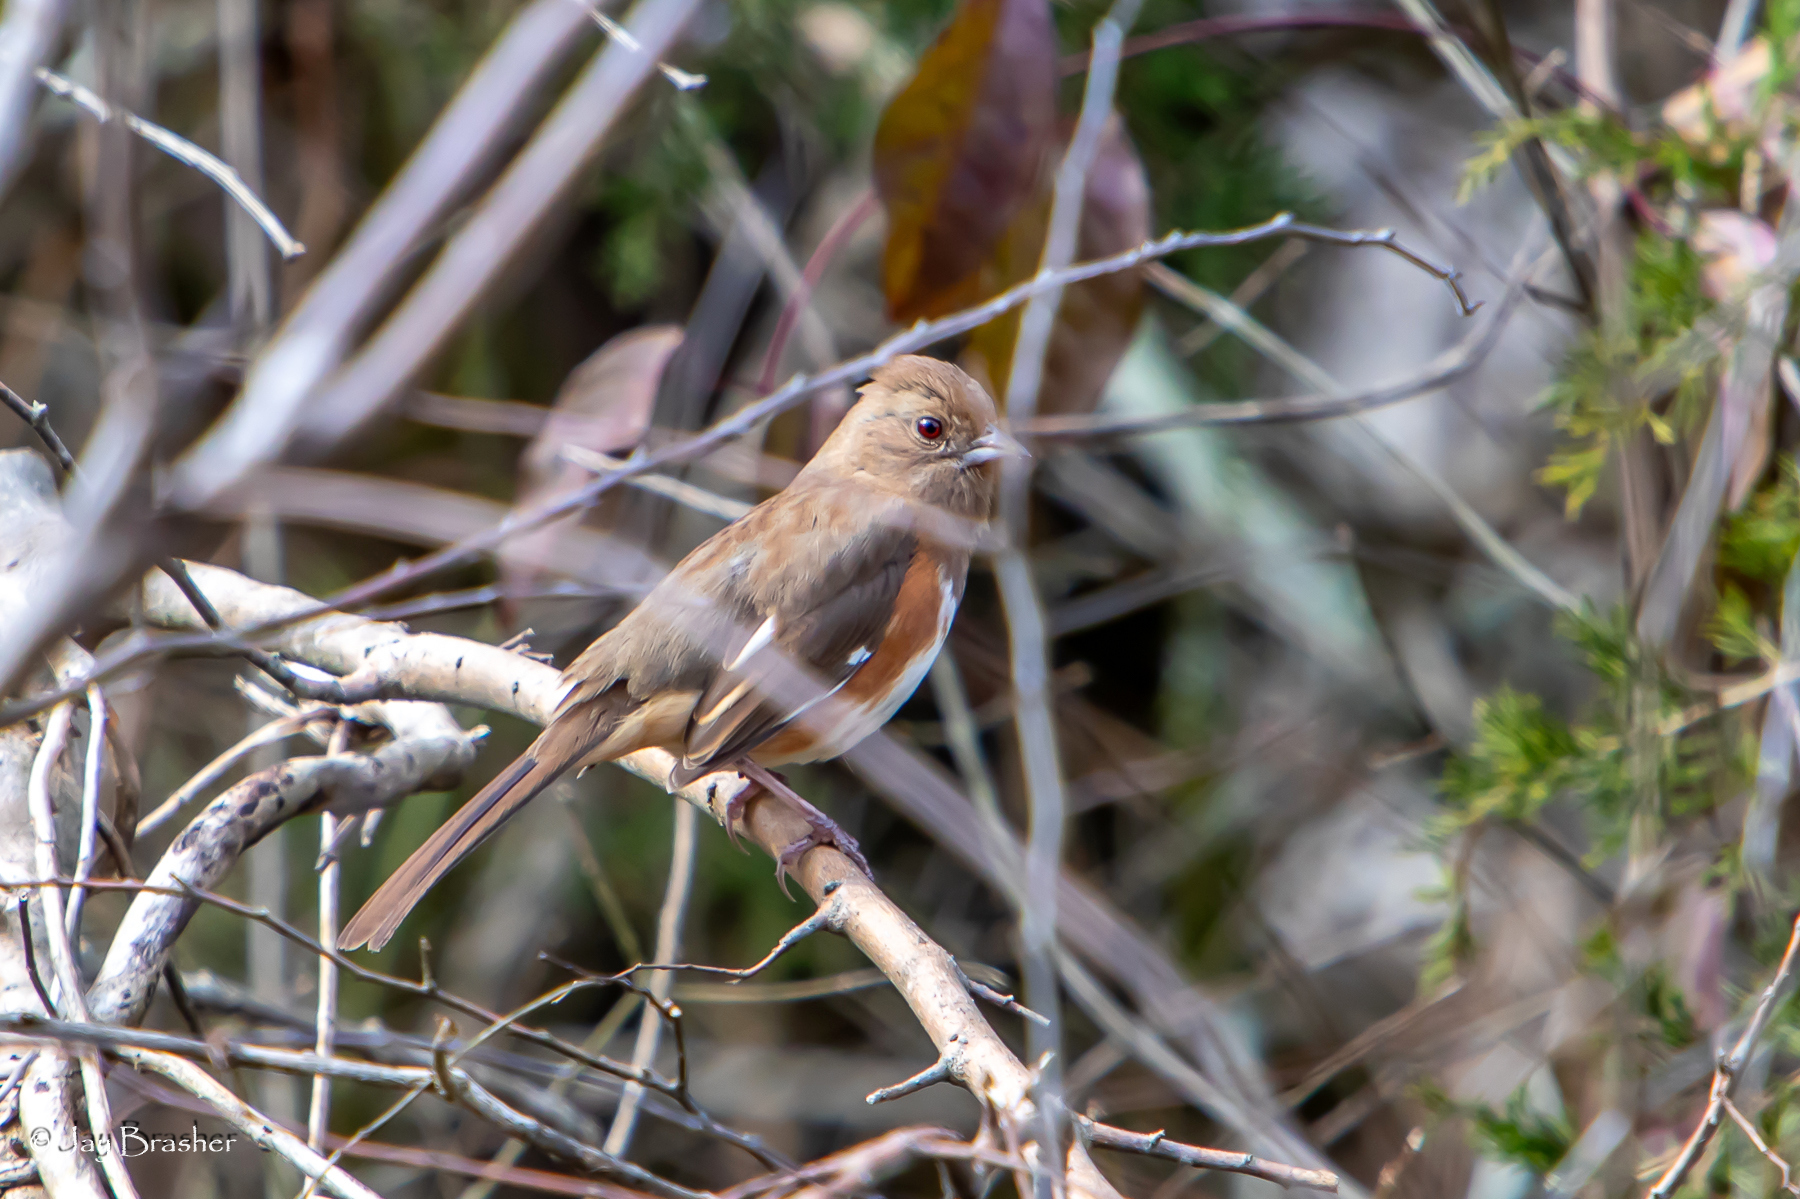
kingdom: Animalia
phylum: Chordata
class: Aves
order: Passeriformes
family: Passerellidae
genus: Pipilo
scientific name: Pipilo erythrophthalmus
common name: Eastern towhee
